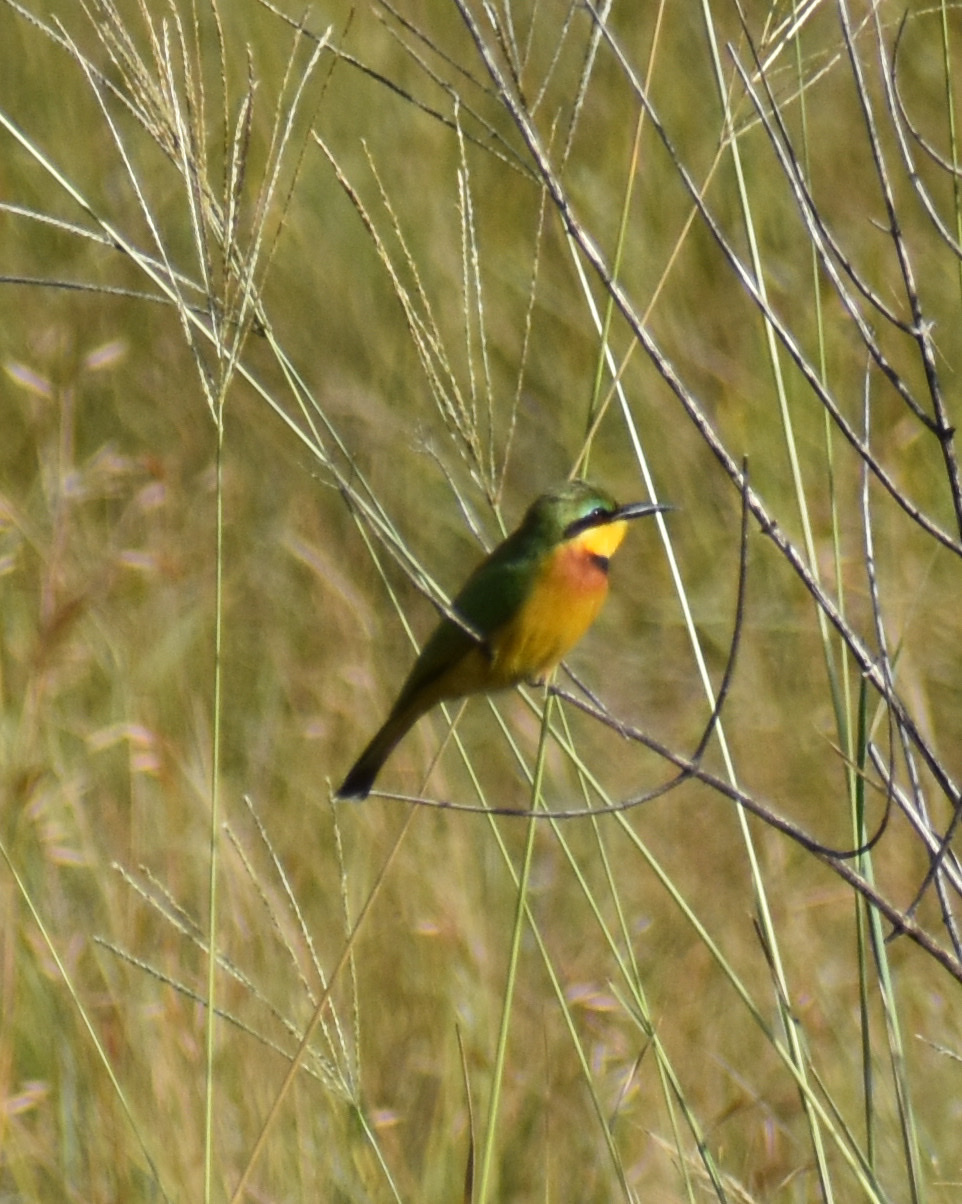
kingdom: Animalia
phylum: Chordata
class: Aves
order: Coraciiformes
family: Meropidae
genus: Merops
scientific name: Merops pusillus
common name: Little bee-eater
